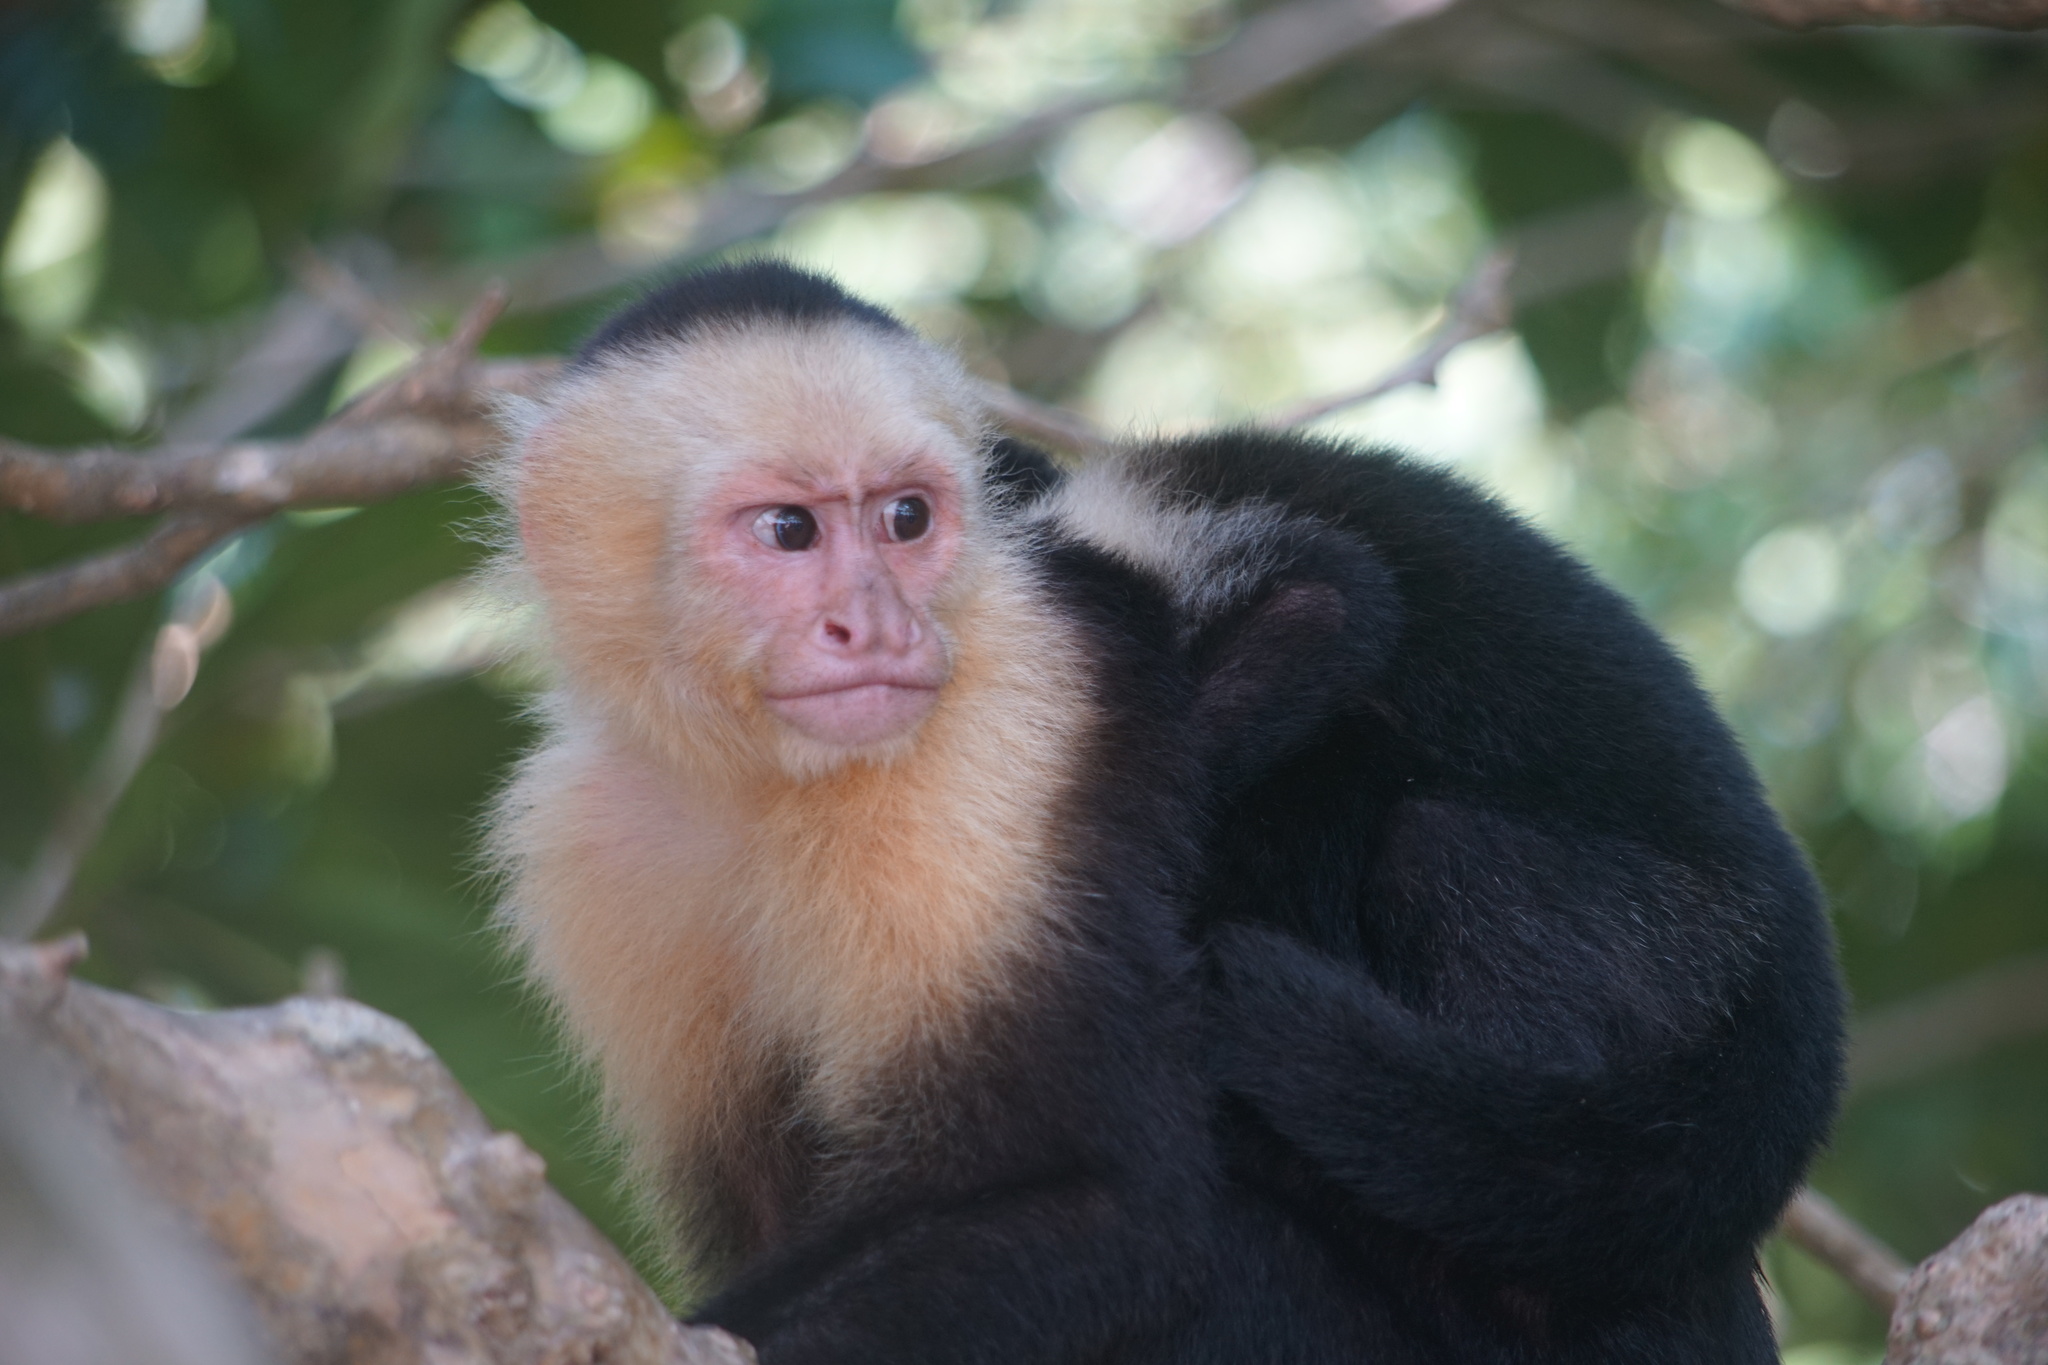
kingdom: Animalia
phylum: Chordata
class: Mammalia
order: Primates
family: Cebidae
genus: Cebus
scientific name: Cebus imitator
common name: Panamanian white-faced capuchin
